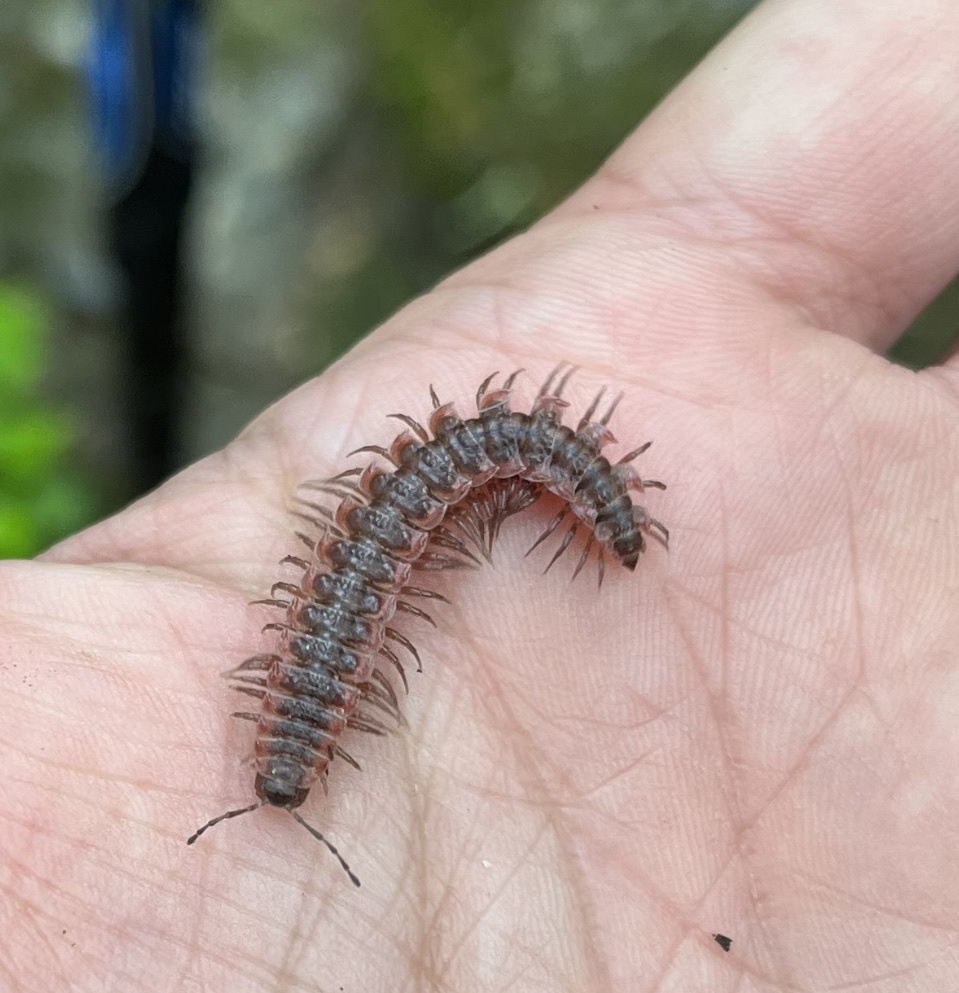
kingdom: Animalia
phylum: Arthropoda
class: Diplopoda
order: Polydesmida
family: Polydesmidae
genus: Pseudopolydesmus
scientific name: Pseudopolydesmus serratus
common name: Common pink flat-back millipede
